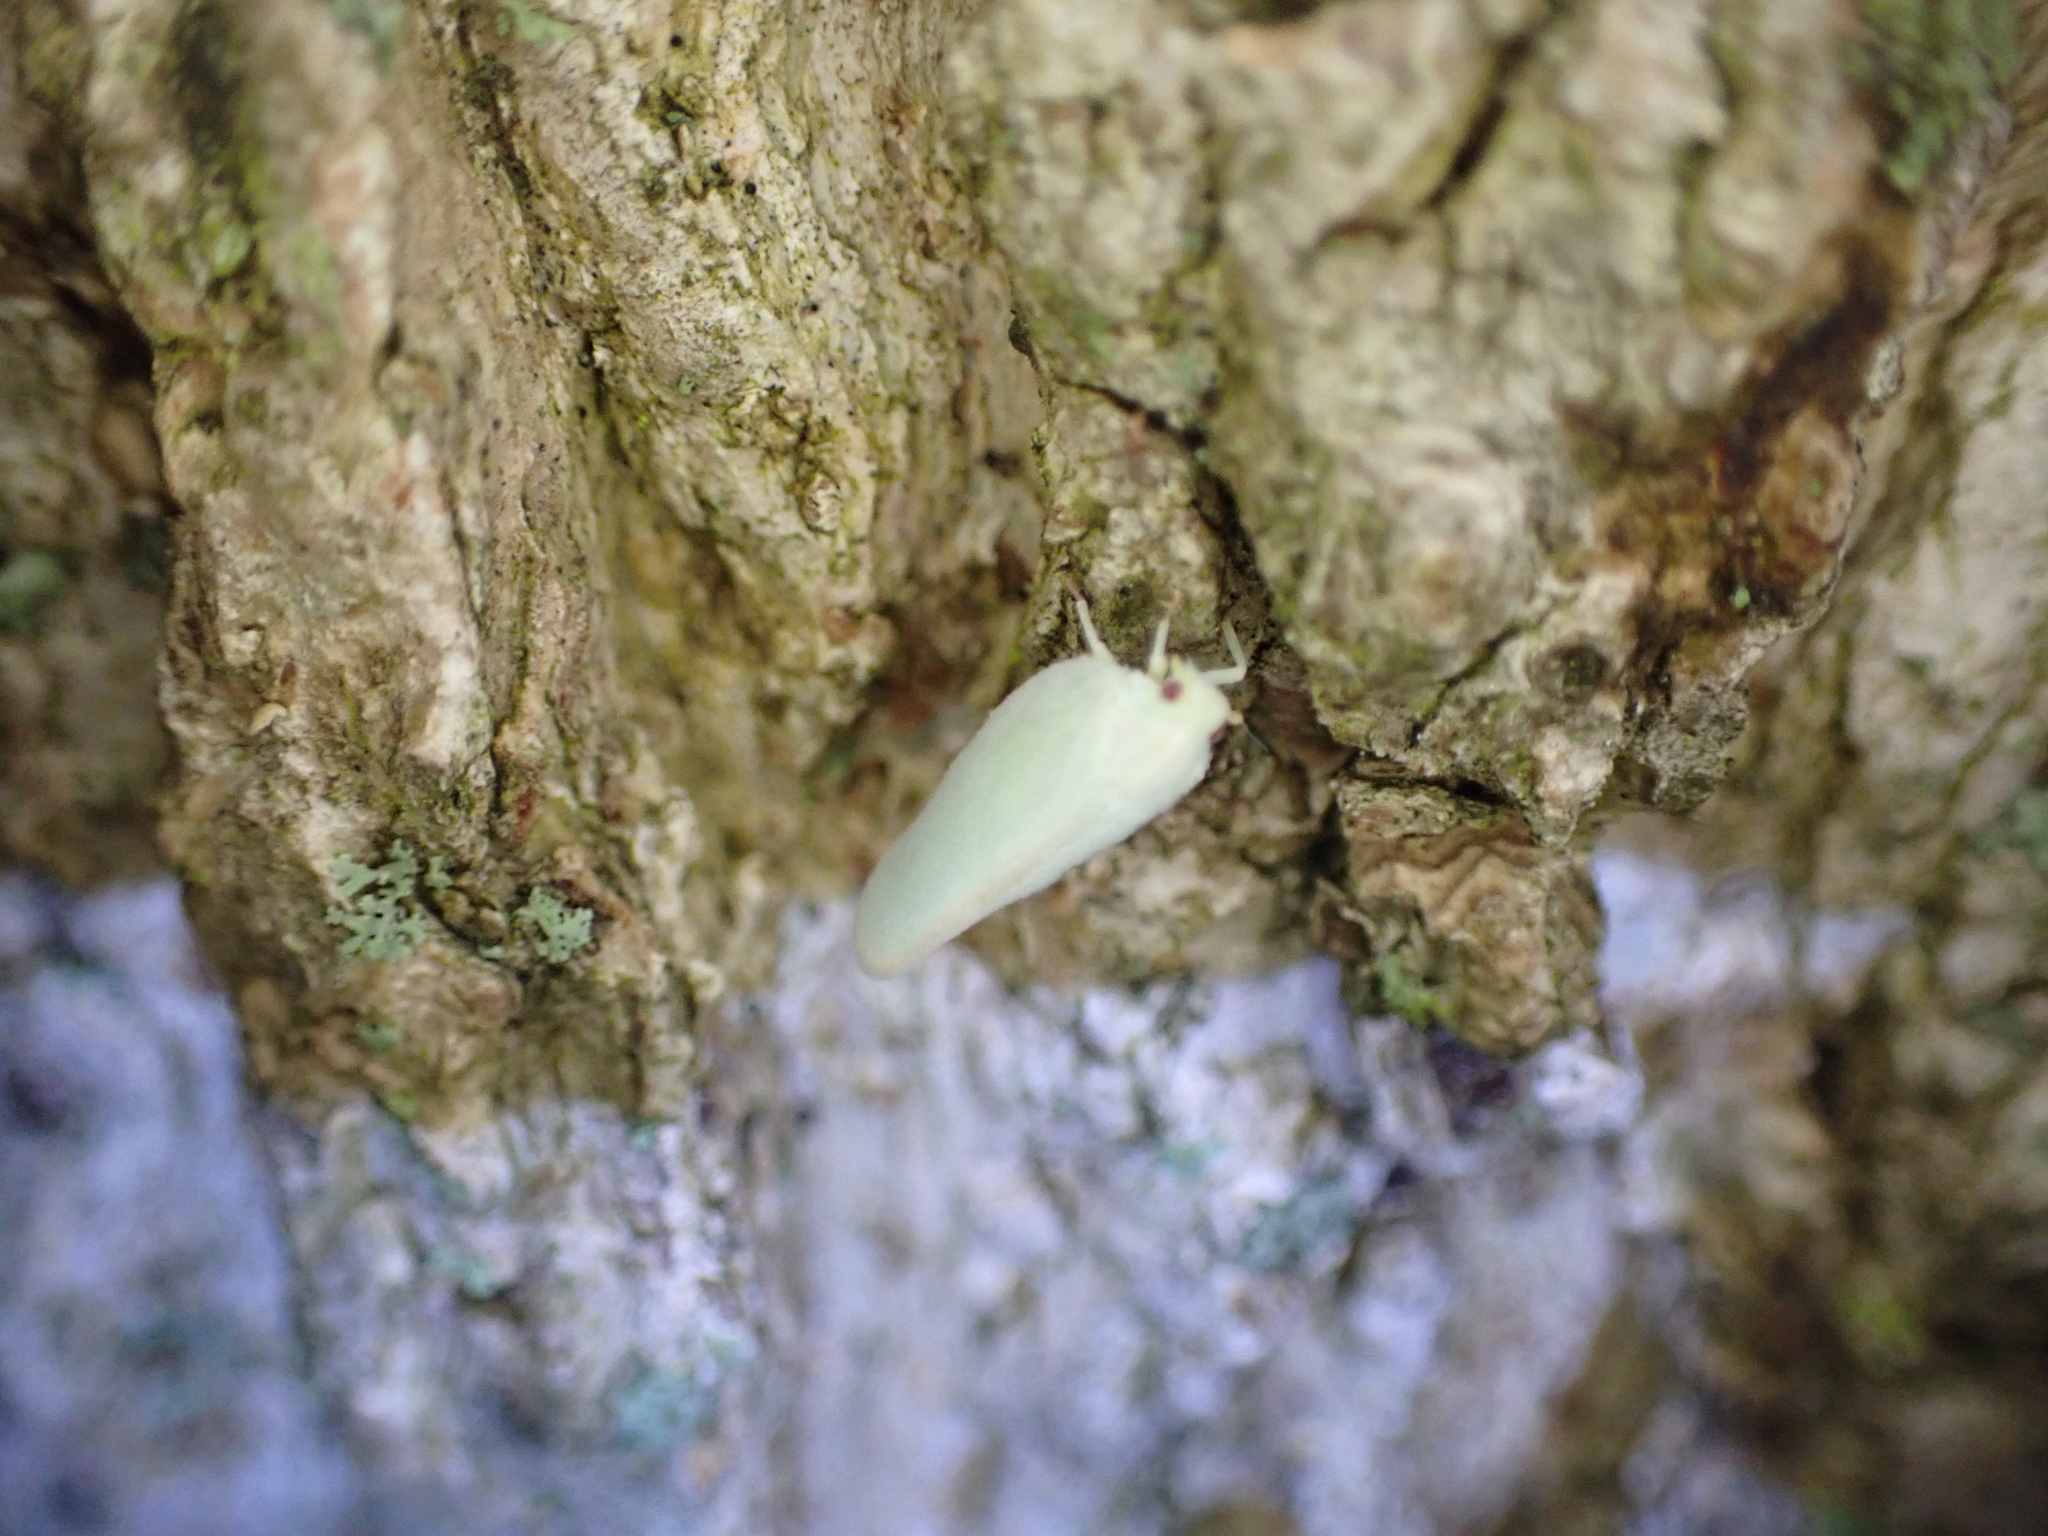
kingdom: Animalia
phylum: Arthropoda
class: Insecta
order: Hemiptera
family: Flatidae
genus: Ormenoides
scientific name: Ormenoides venusta
